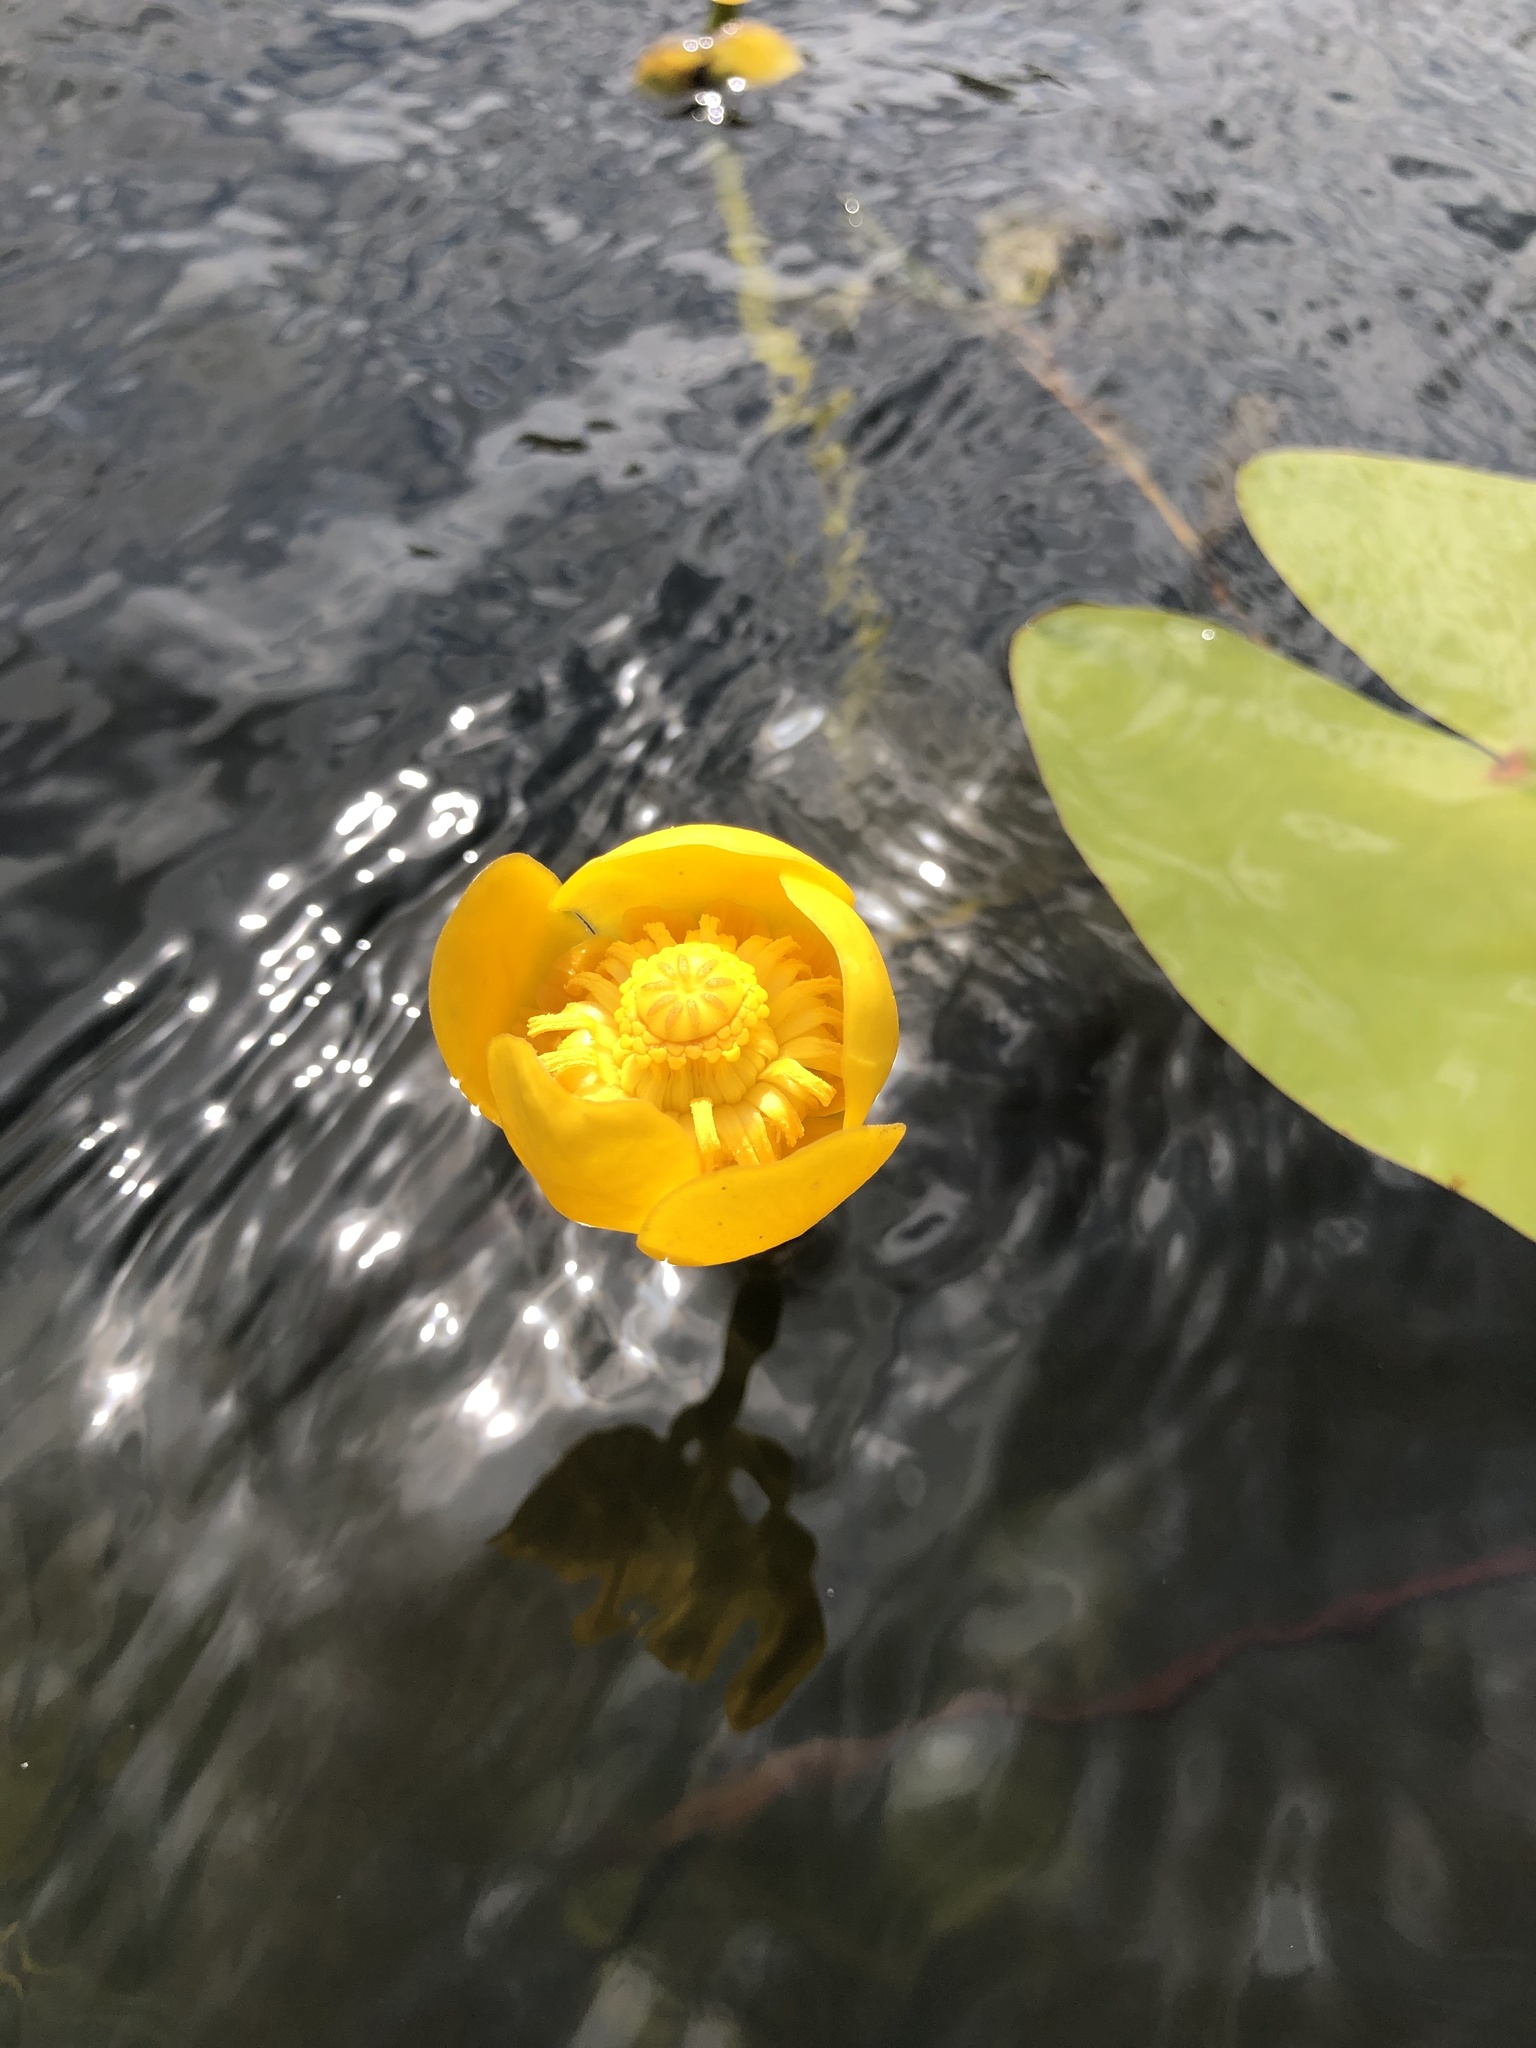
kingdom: Plantae
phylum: Tracheophyta
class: Magnoliopsida
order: Nymphaeales
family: Nymphaeaceae
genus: Nuphar
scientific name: Nuphar lutea
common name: Yellow water-lily
